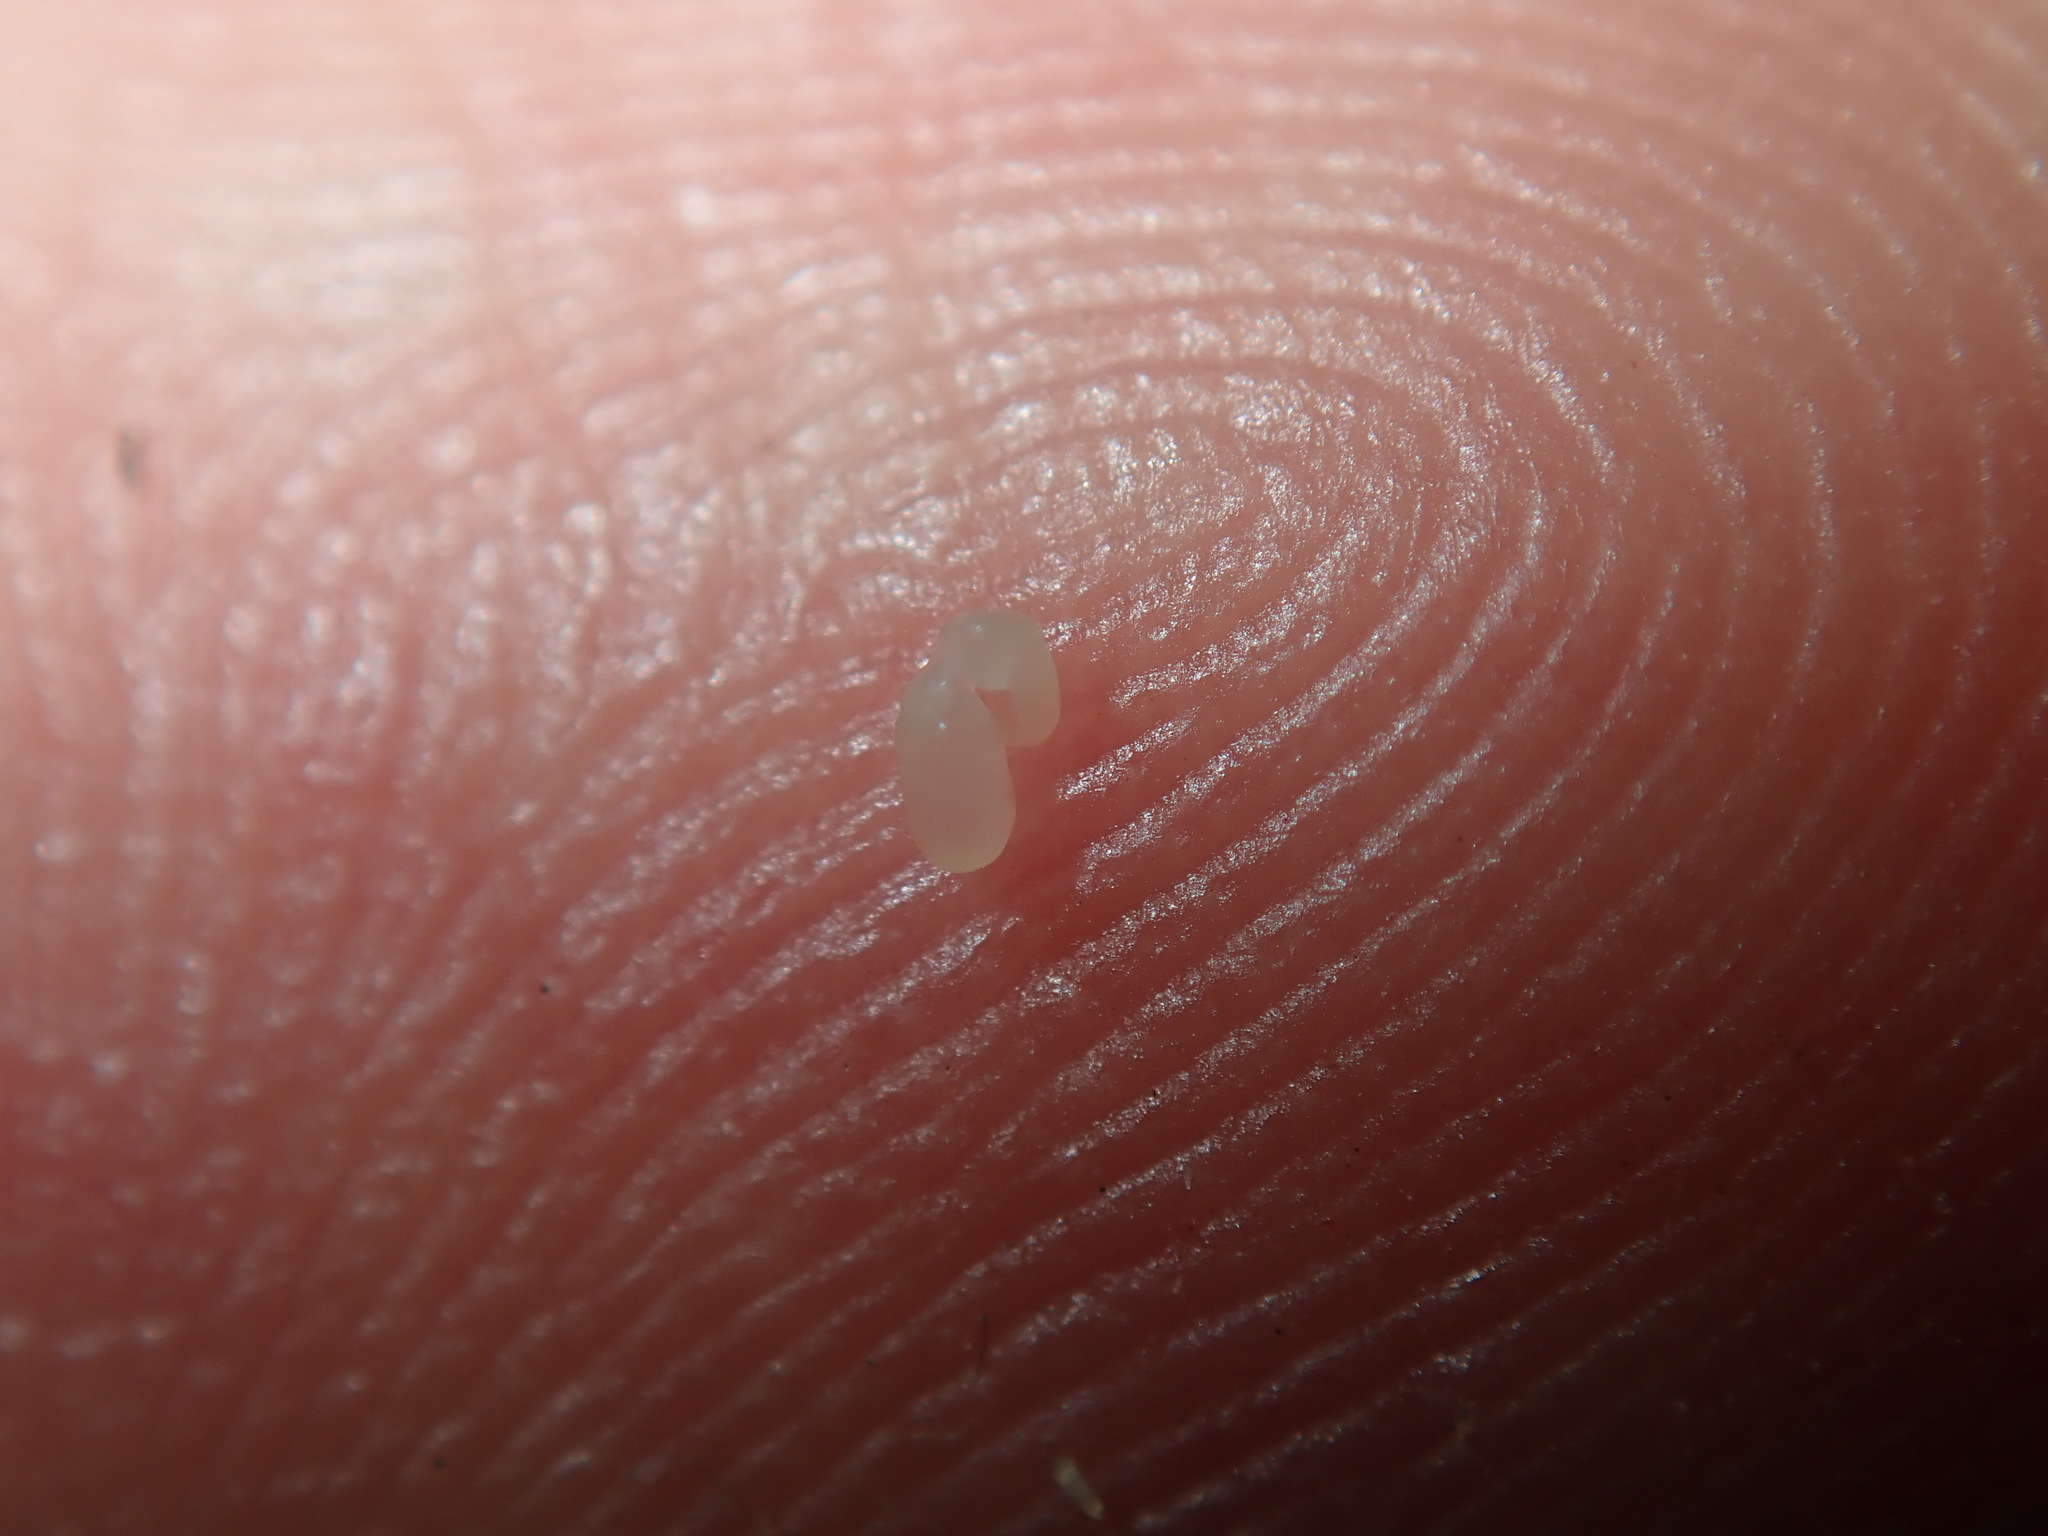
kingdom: Plantae
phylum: Tracheophyta
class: Magnoliopsida
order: Malpighiales
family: Euphorbiaceae
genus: Euphorbia
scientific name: Euphorbia hyssopifolia
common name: Hyssopleaf sandmat
